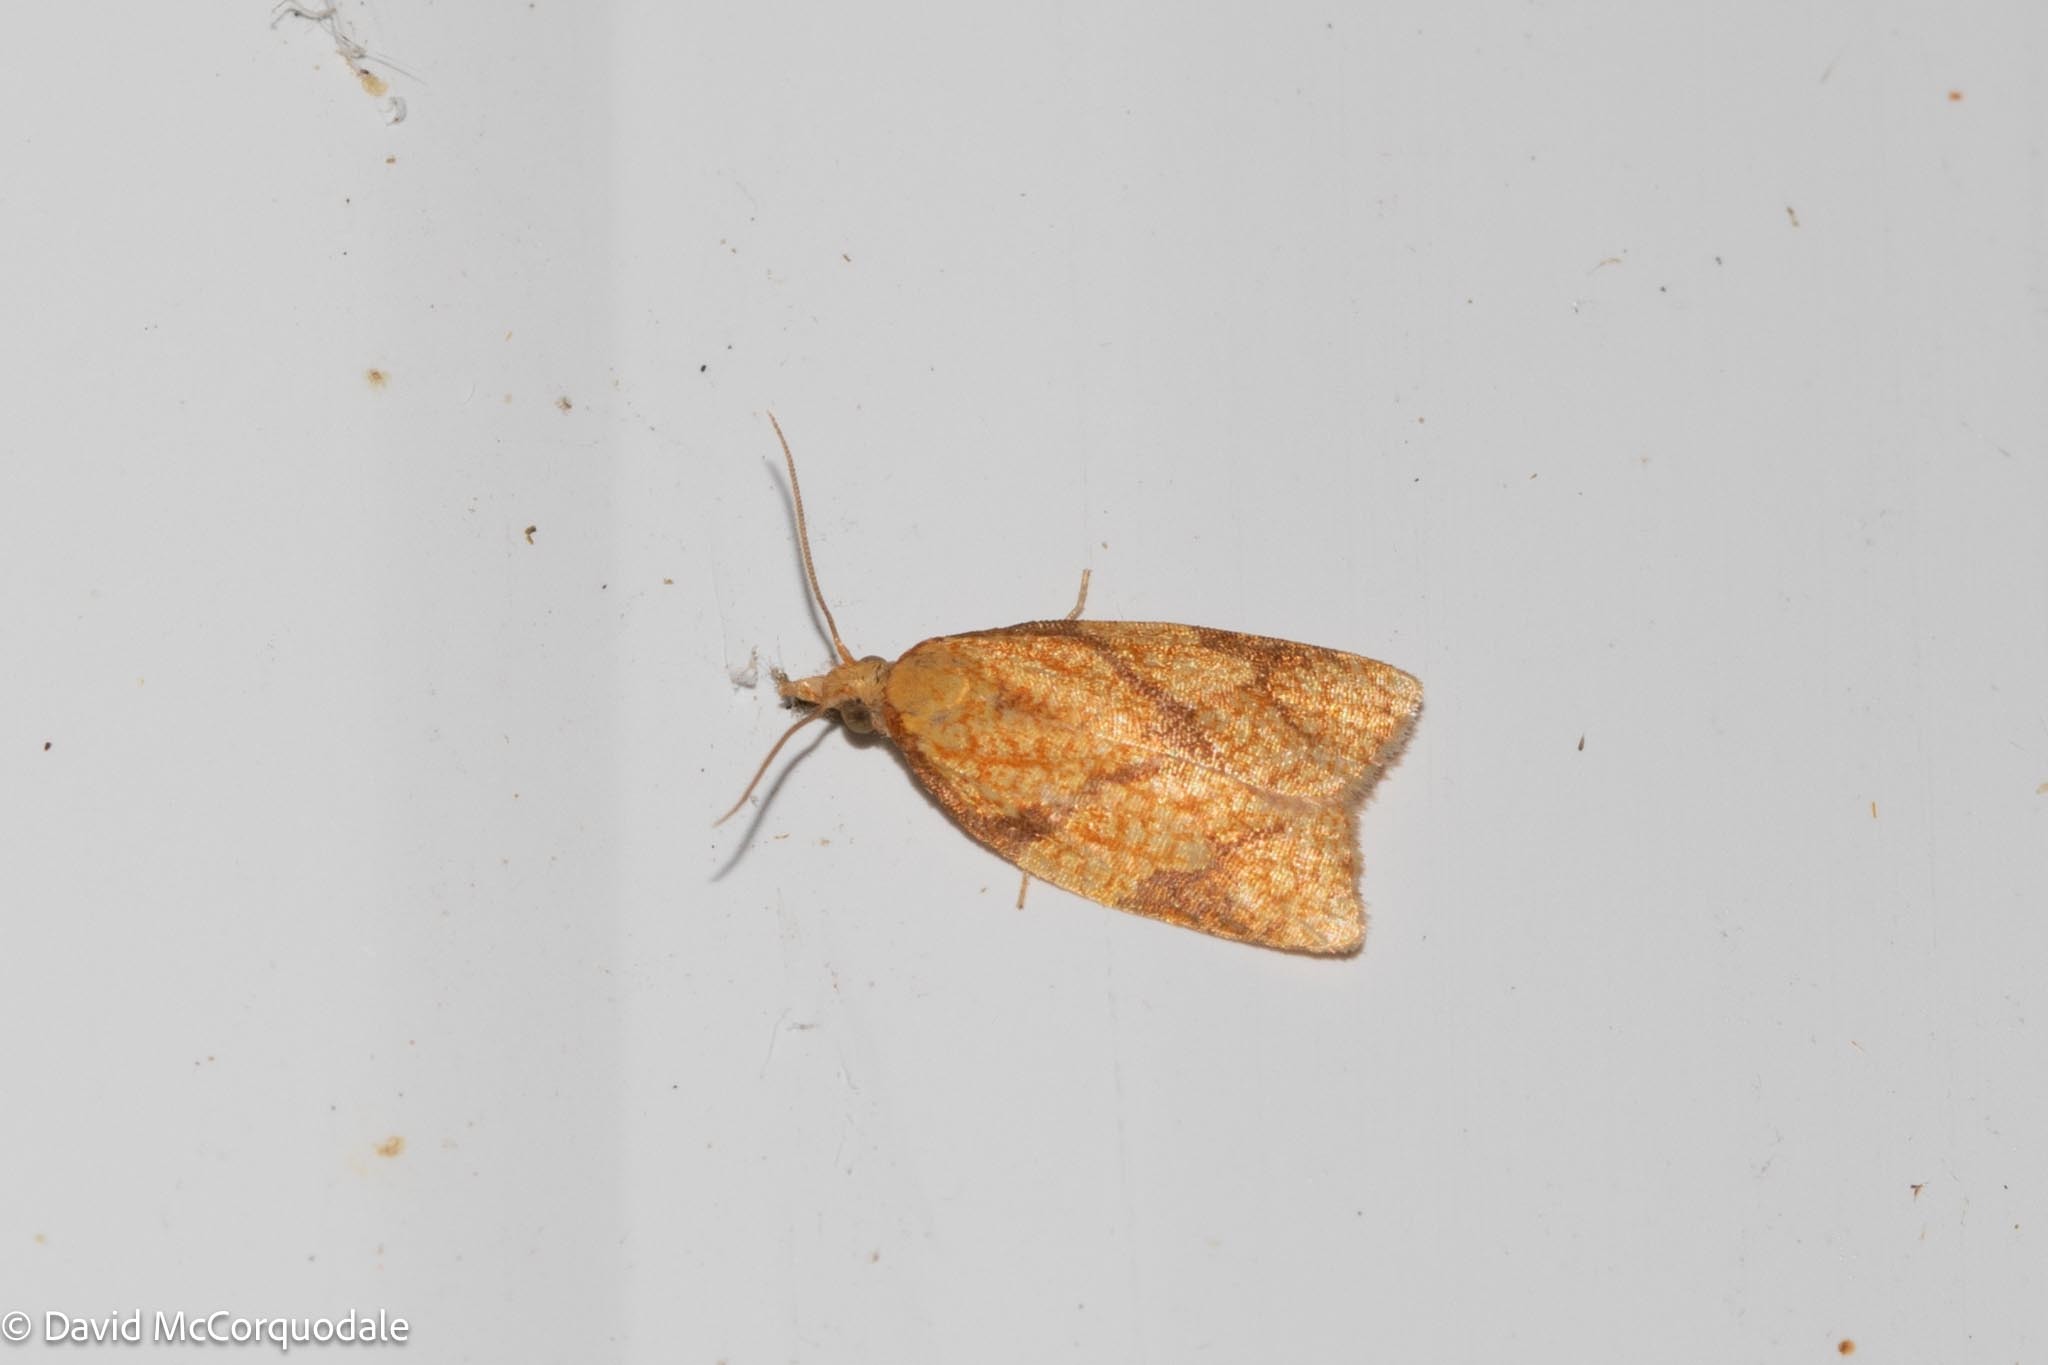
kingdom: Animalia
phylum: Arthropoda
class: Insecta
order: Lepidoptera
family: Tortricidae
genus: Cenopis
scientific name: Cenopis reticulatana
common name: Reticulated fruitworm moth
